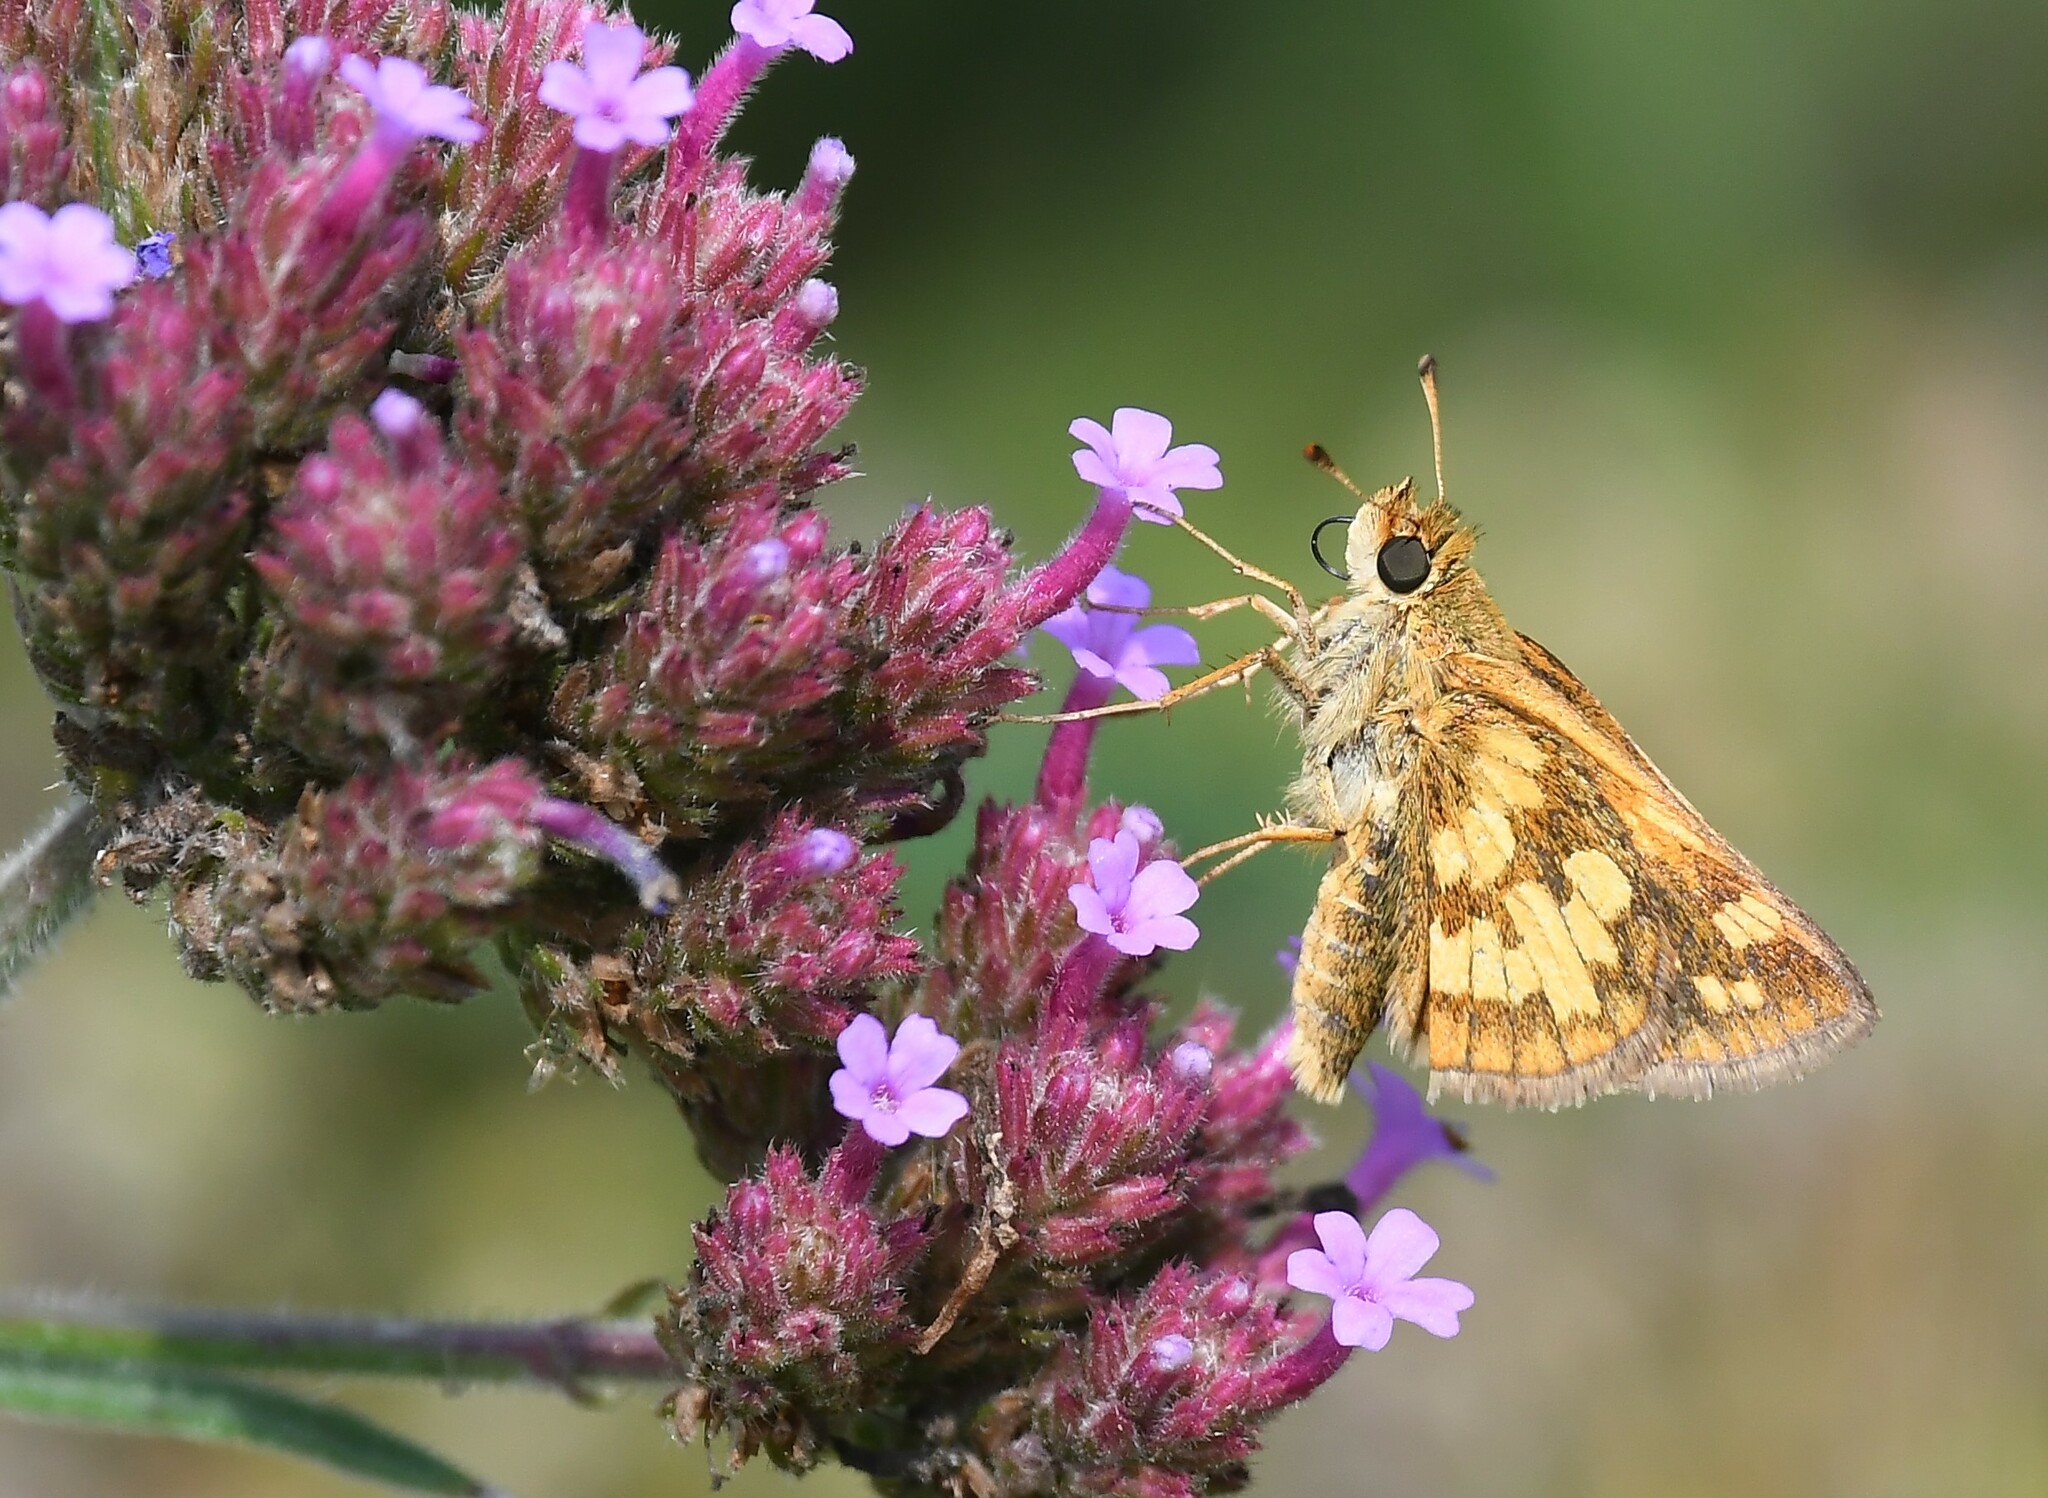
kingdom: Animalia
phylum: Arthropoda
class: Insecta
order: Lepidoptera
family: Hesperiidae
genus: Polites
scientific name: Polites coras
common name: Peck's skipper
